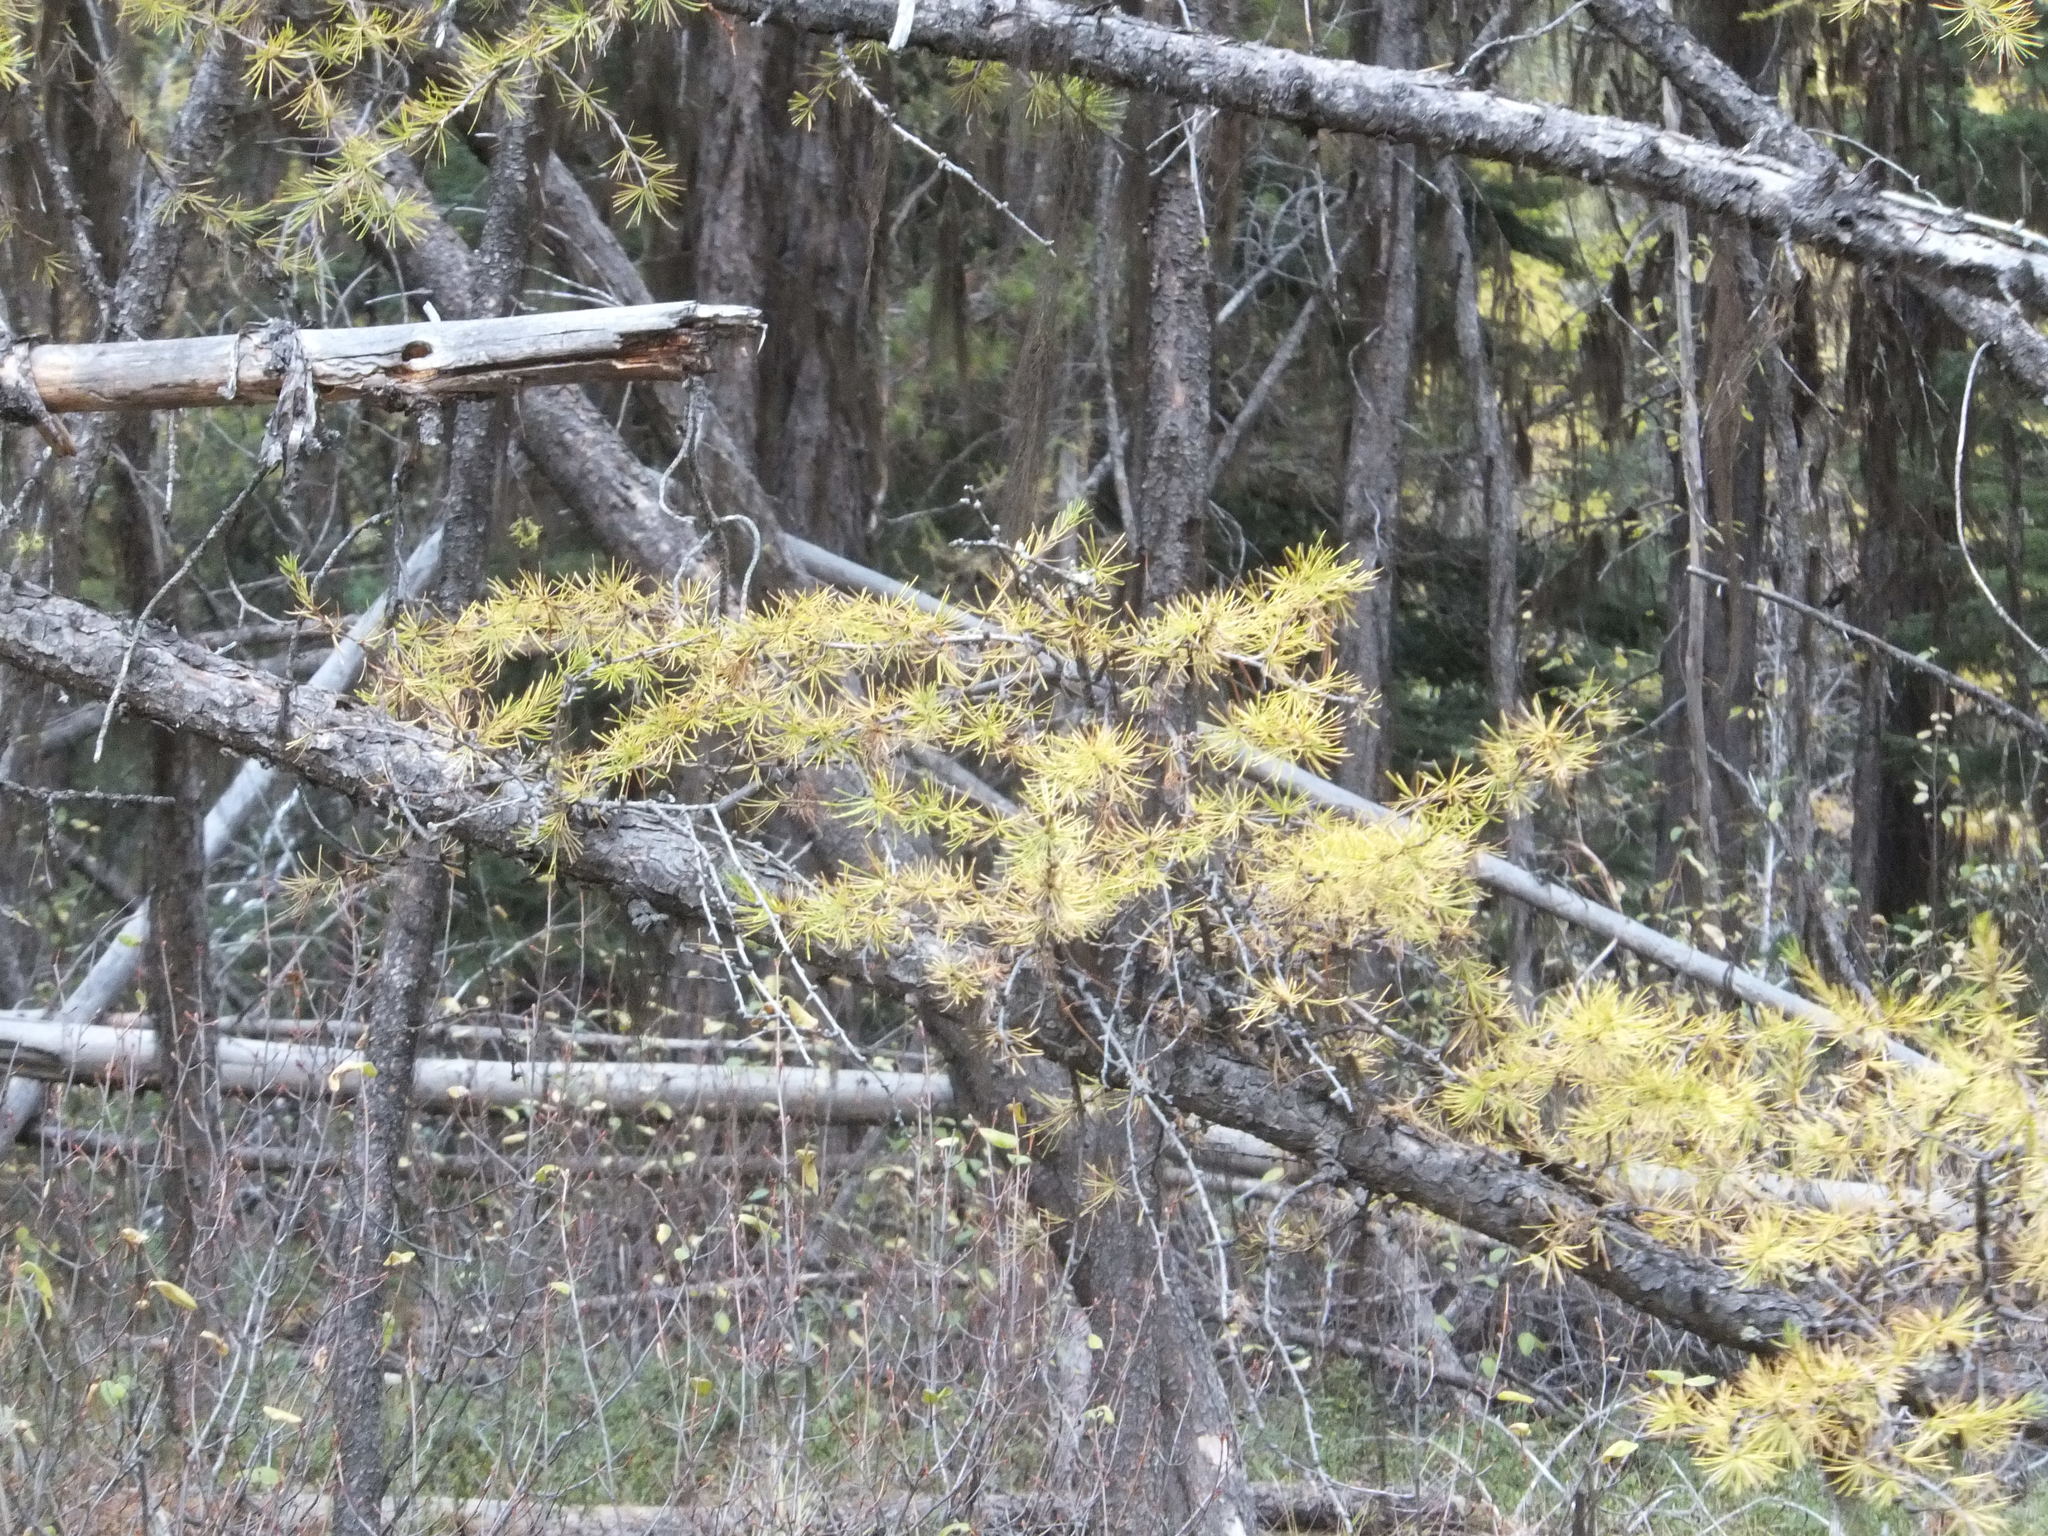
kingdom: Plantae
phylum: Tracheophyta
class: Pinopsida
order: Pinales
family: Pinaceae
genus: Larix
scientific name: Larix occidentalis
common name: Western larch
